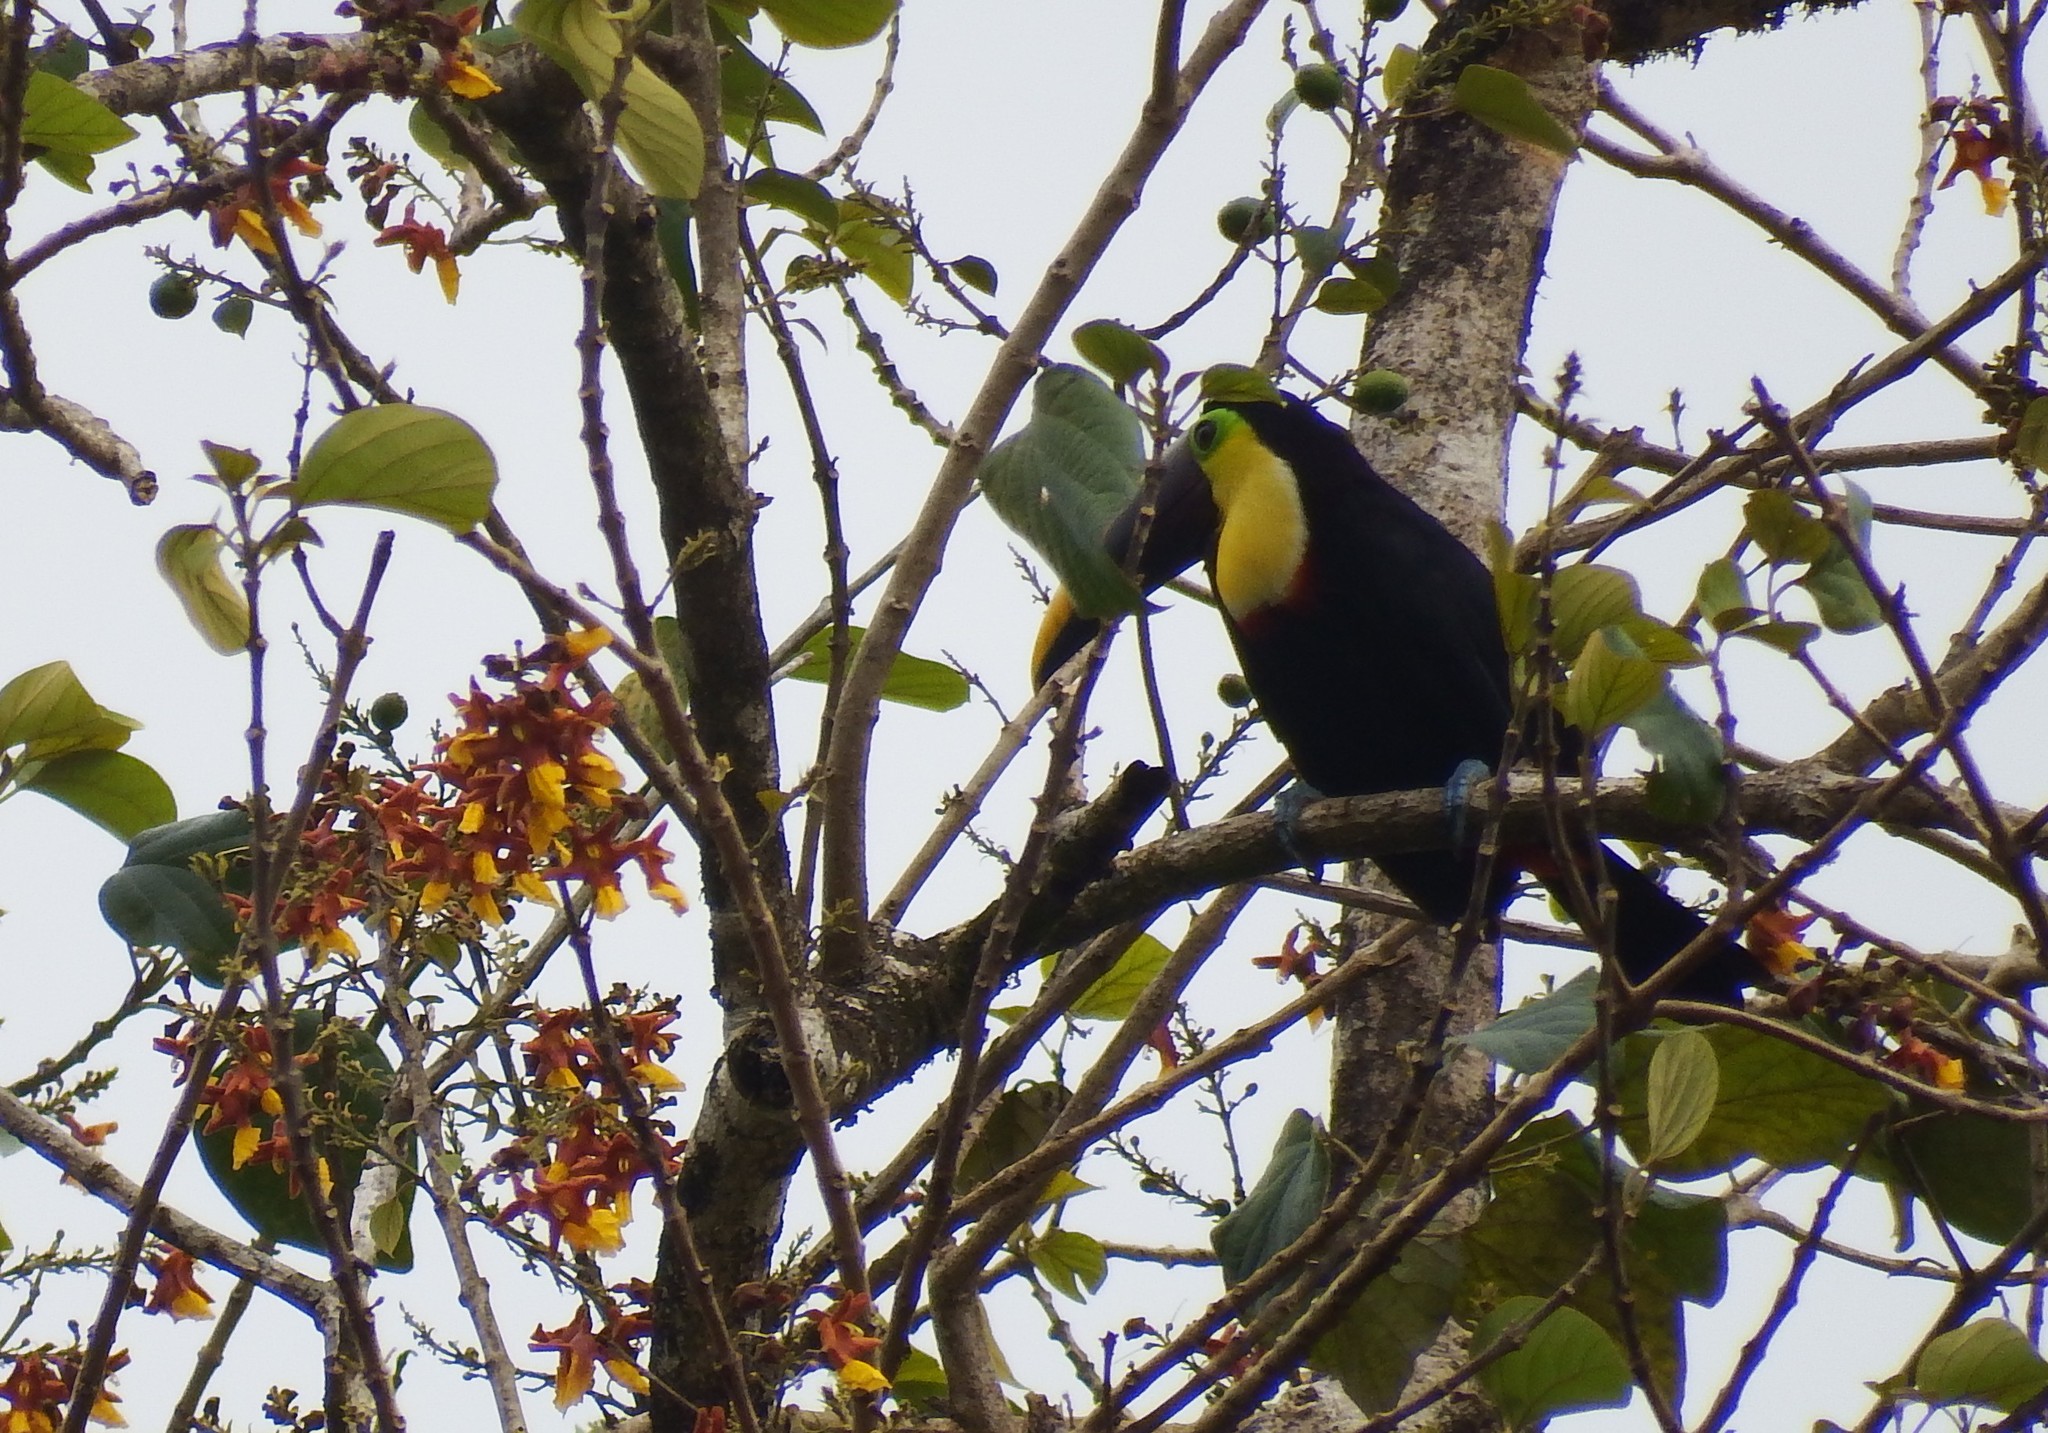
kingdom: Animalia
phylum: Chordata
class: Aves
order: Piciformes
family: Ramphastidae
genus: Ramphastos
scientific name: Ramphastos ambiguus
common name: Yellow-throated toucan
